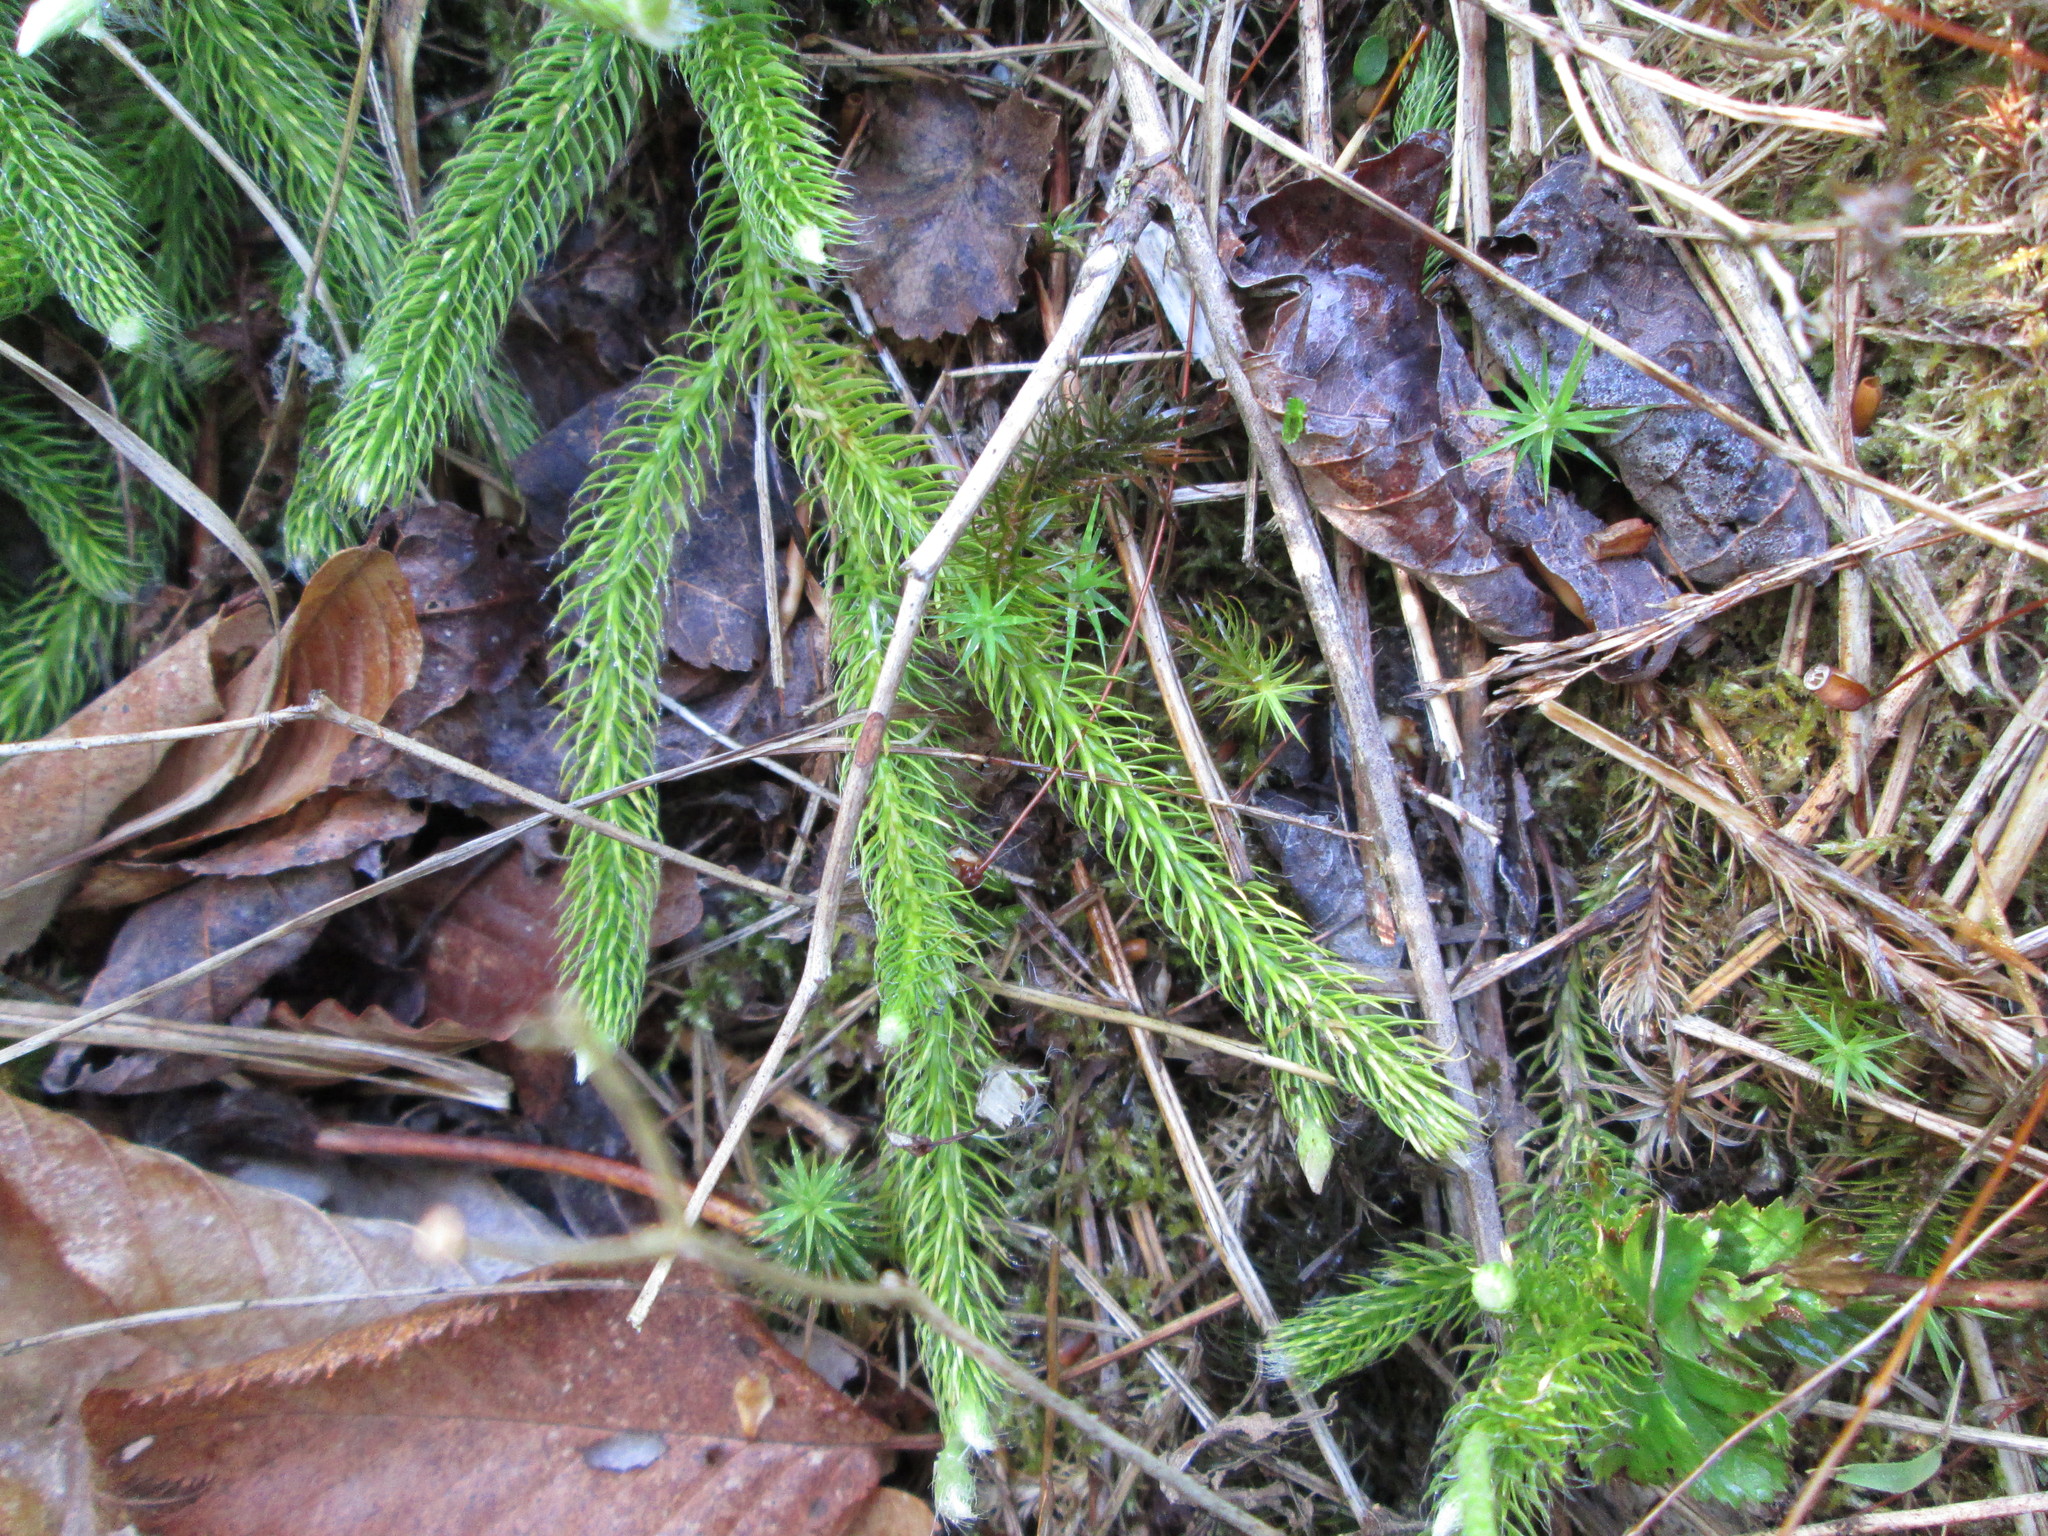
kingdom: Plantae
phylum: Tracheophyta
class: Lycopodiopsida
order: Lycopodiales
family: Lycopodiaceae
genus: Lycopodium
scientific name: Lycopodium clavatum
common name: Stag's-horn clubmoss
